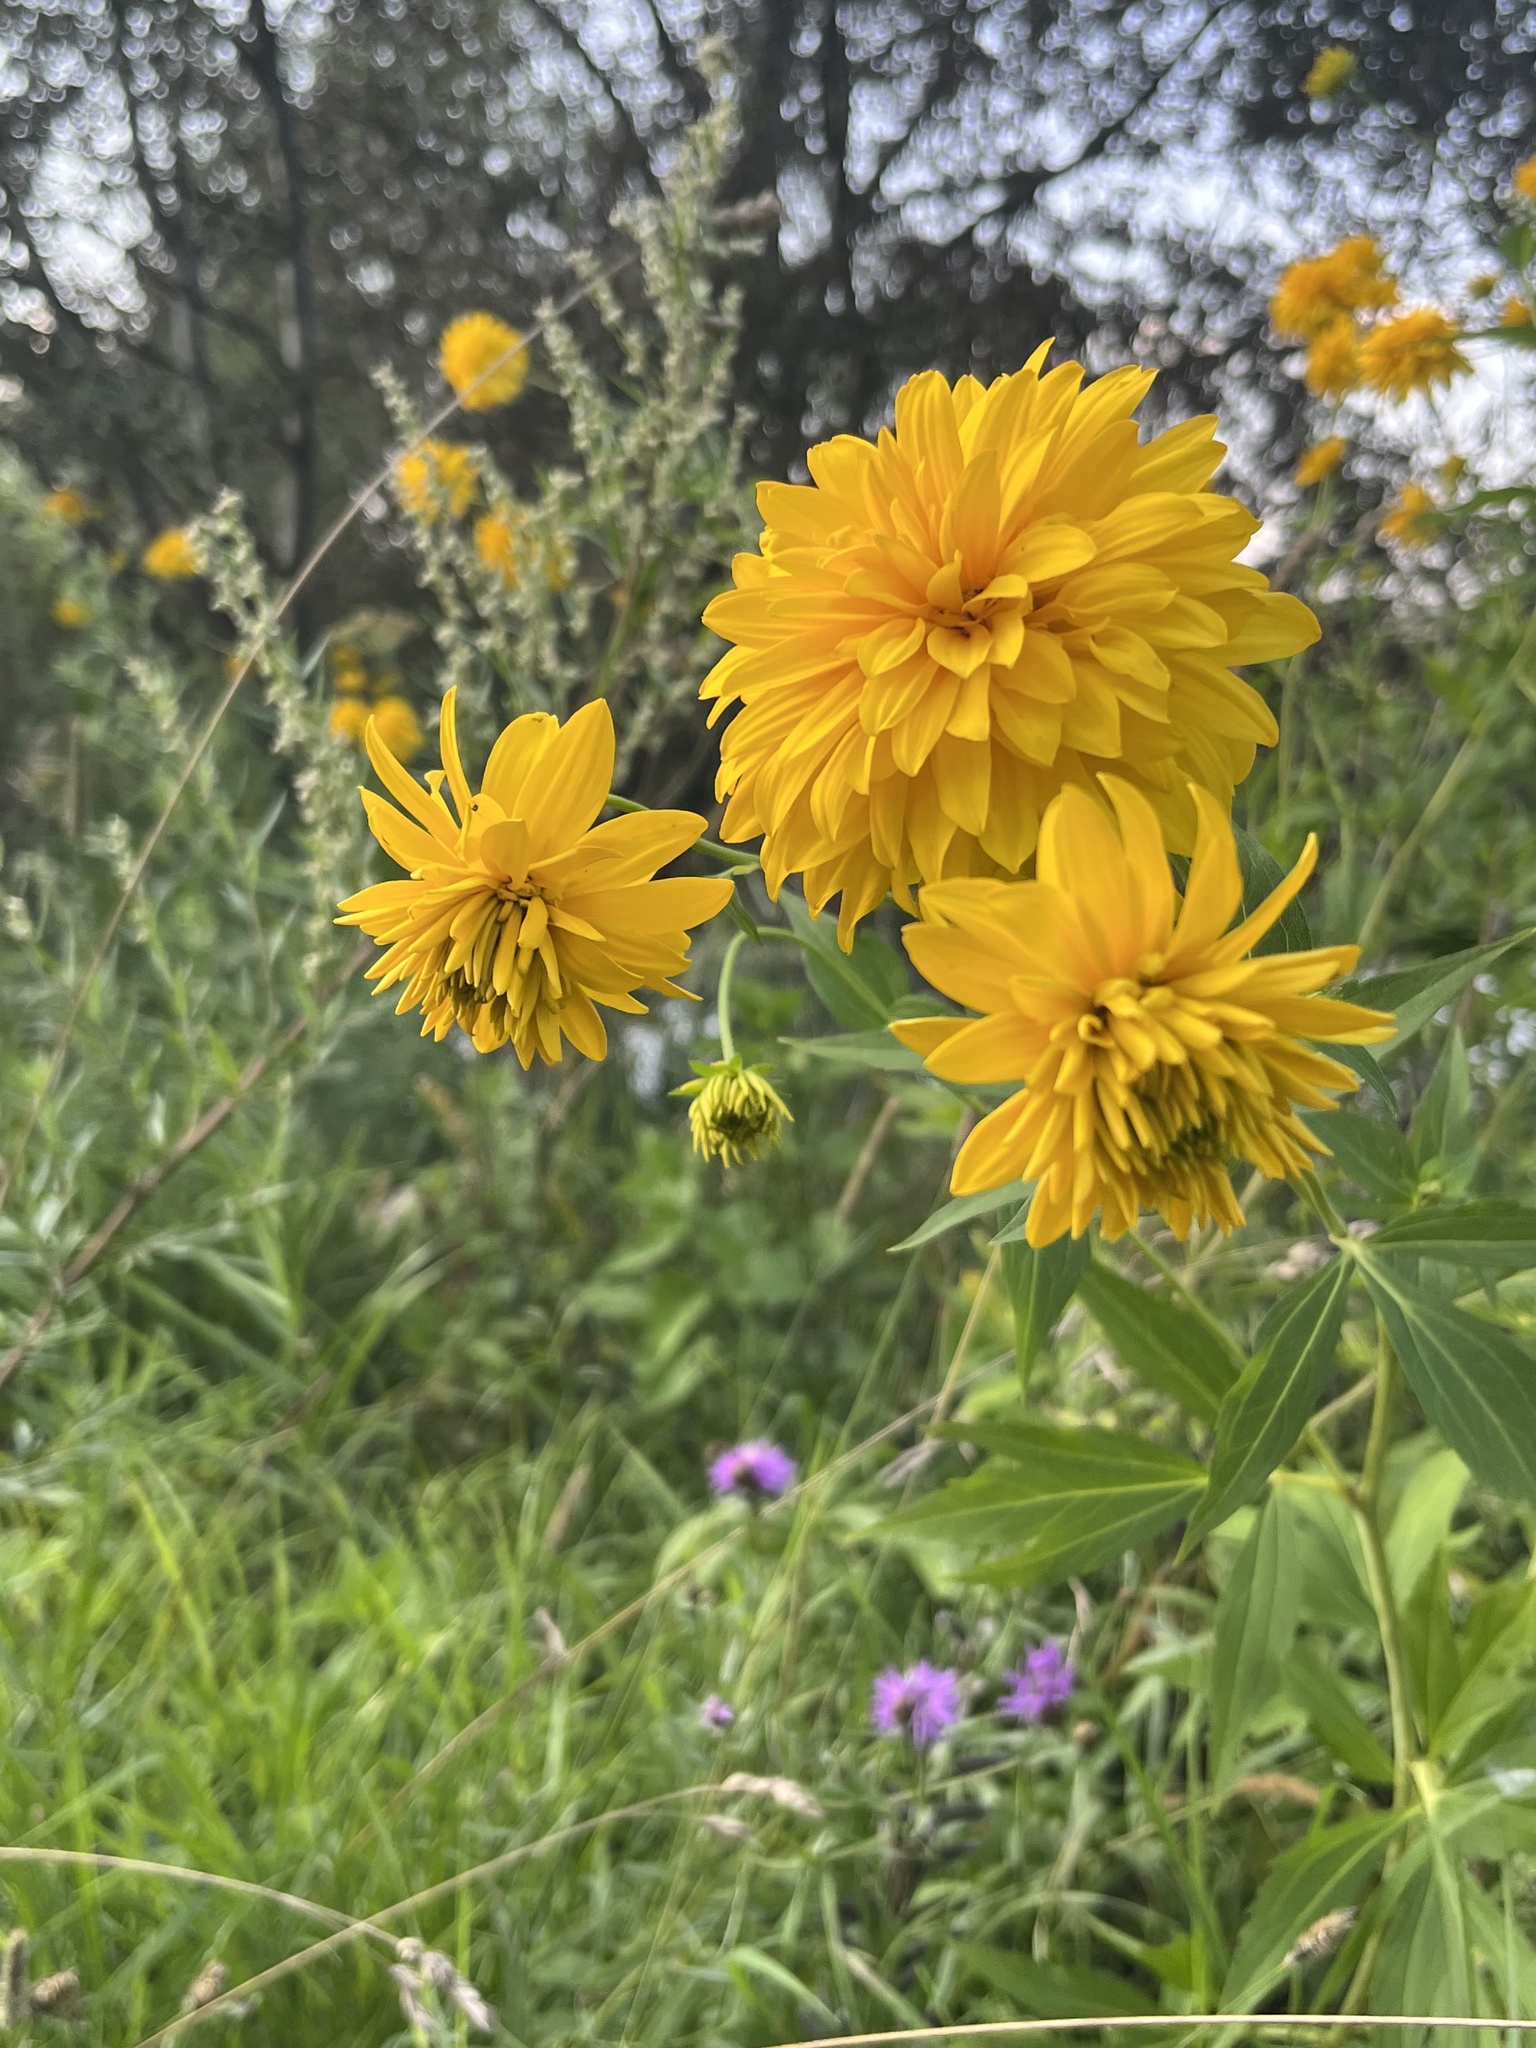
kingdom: Plantae
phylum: Tracheophyta
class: Magnoliopsida
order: Asterales
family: Asteraceae
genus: Rudbeckia
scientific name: Rudbeckia laciniata
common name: Coneflower
